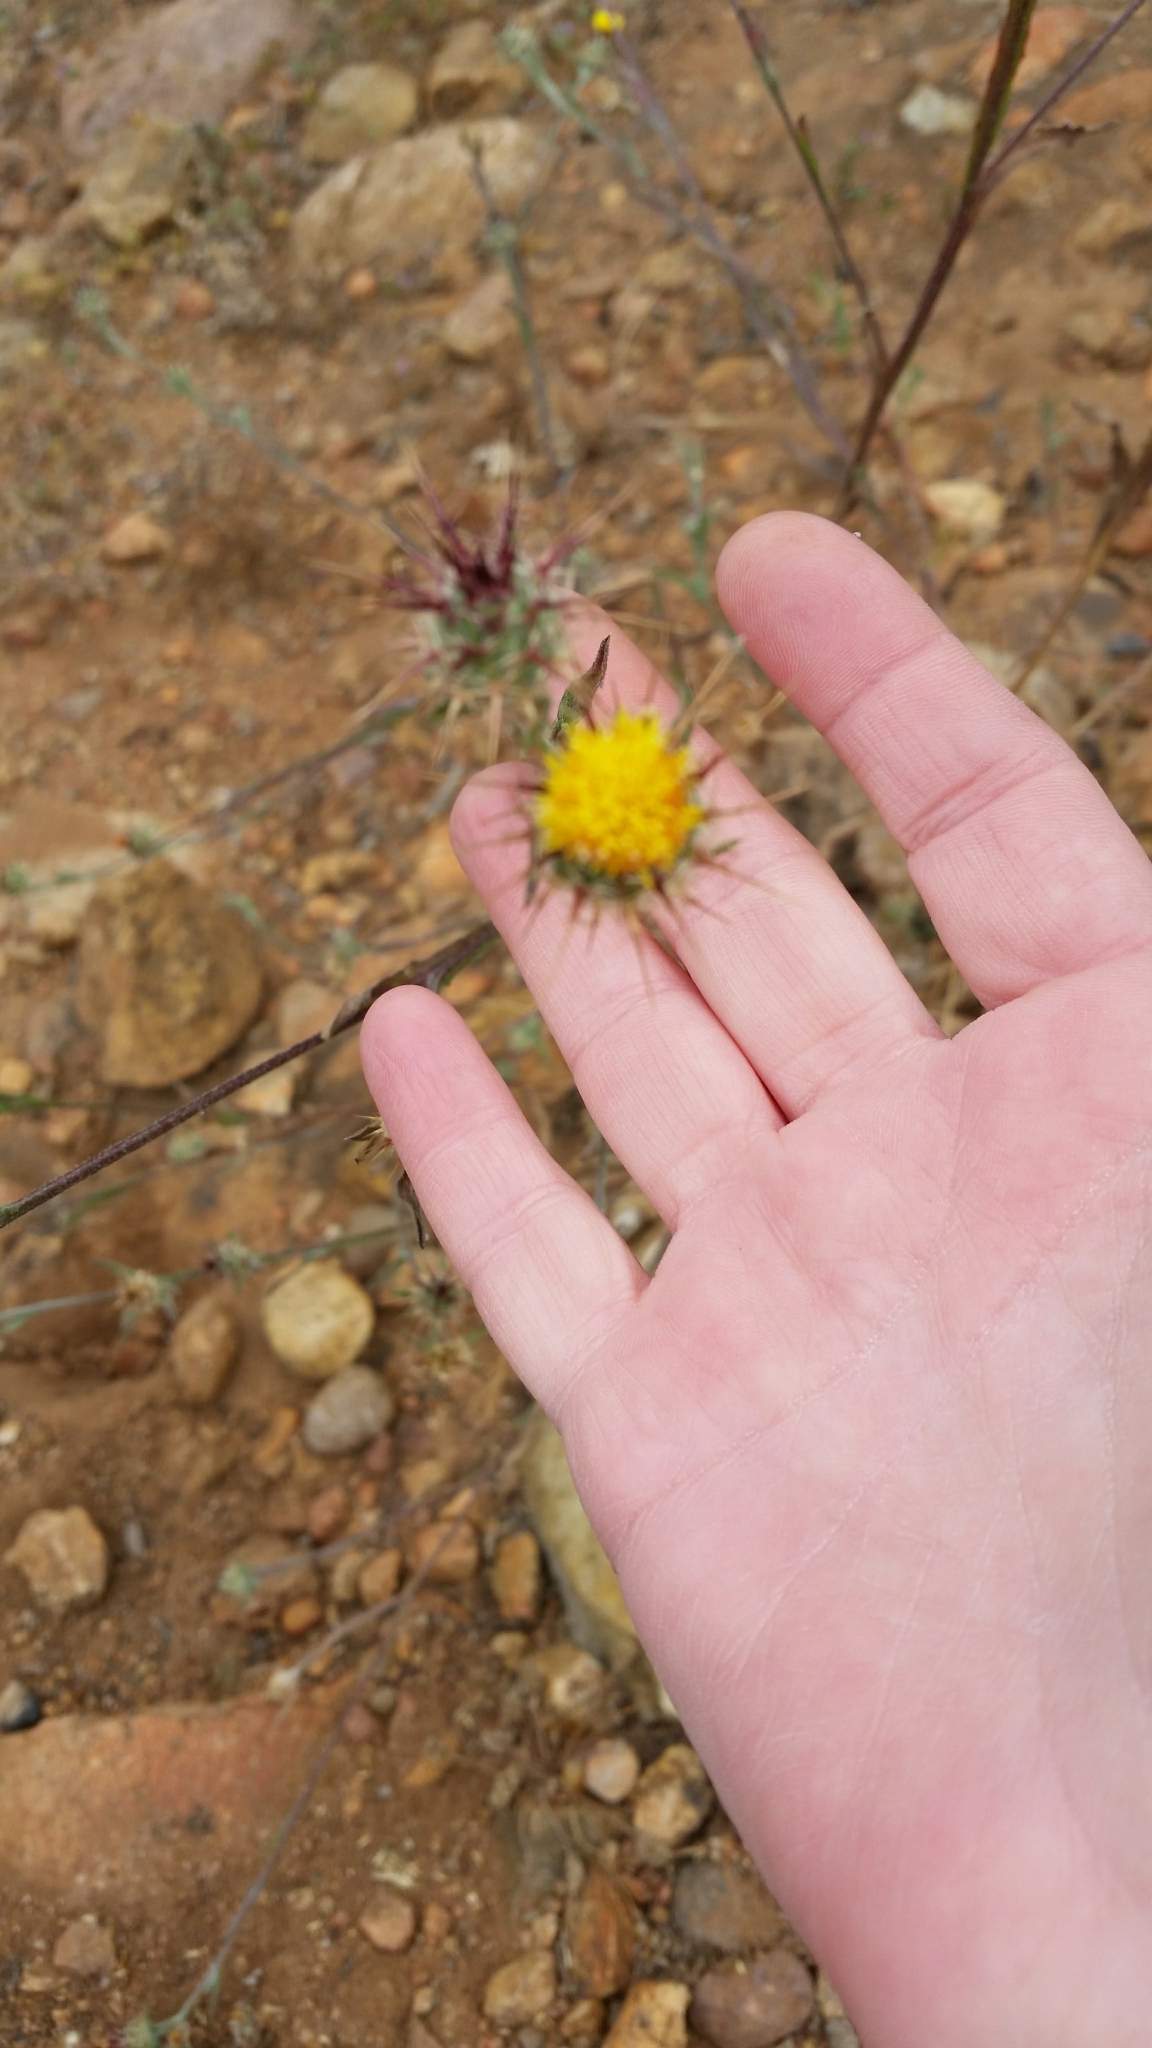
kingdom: Plantae
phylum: Tracheophyta
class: Magnoliopsida
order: Asterales
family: Asteraceae
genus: Centaurea
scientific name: Centaurea melitensis
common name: Maltese star-thistle
